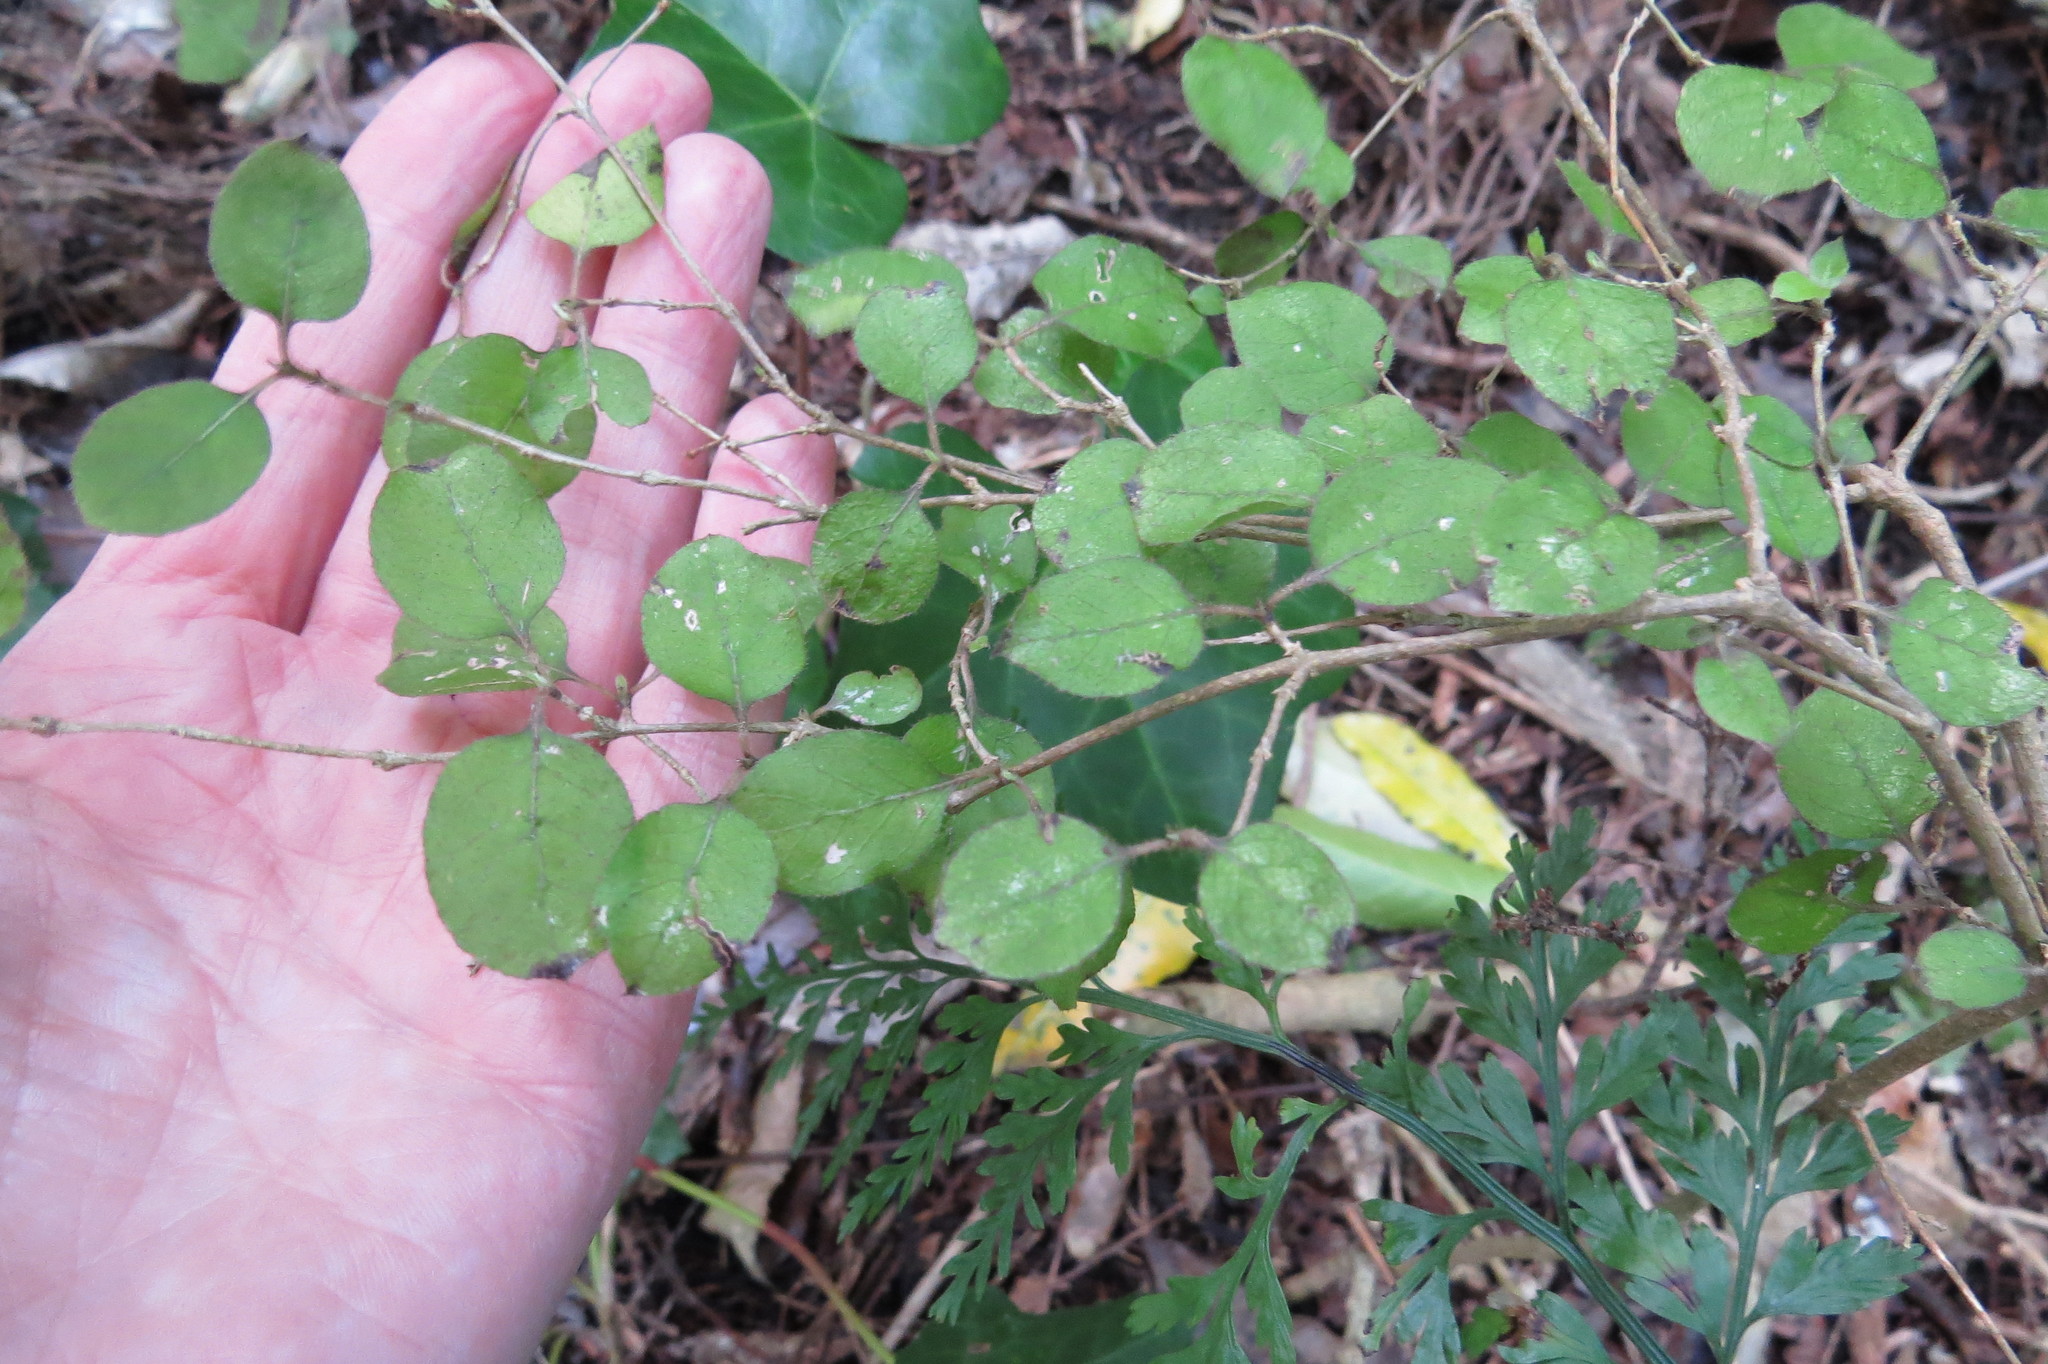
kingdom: Plantae
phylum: Tracheophyta
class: Magnoliopsida
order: Gentianales
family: Rubiaceae
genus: Coprosma
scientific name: Coprosma rotundifolia
